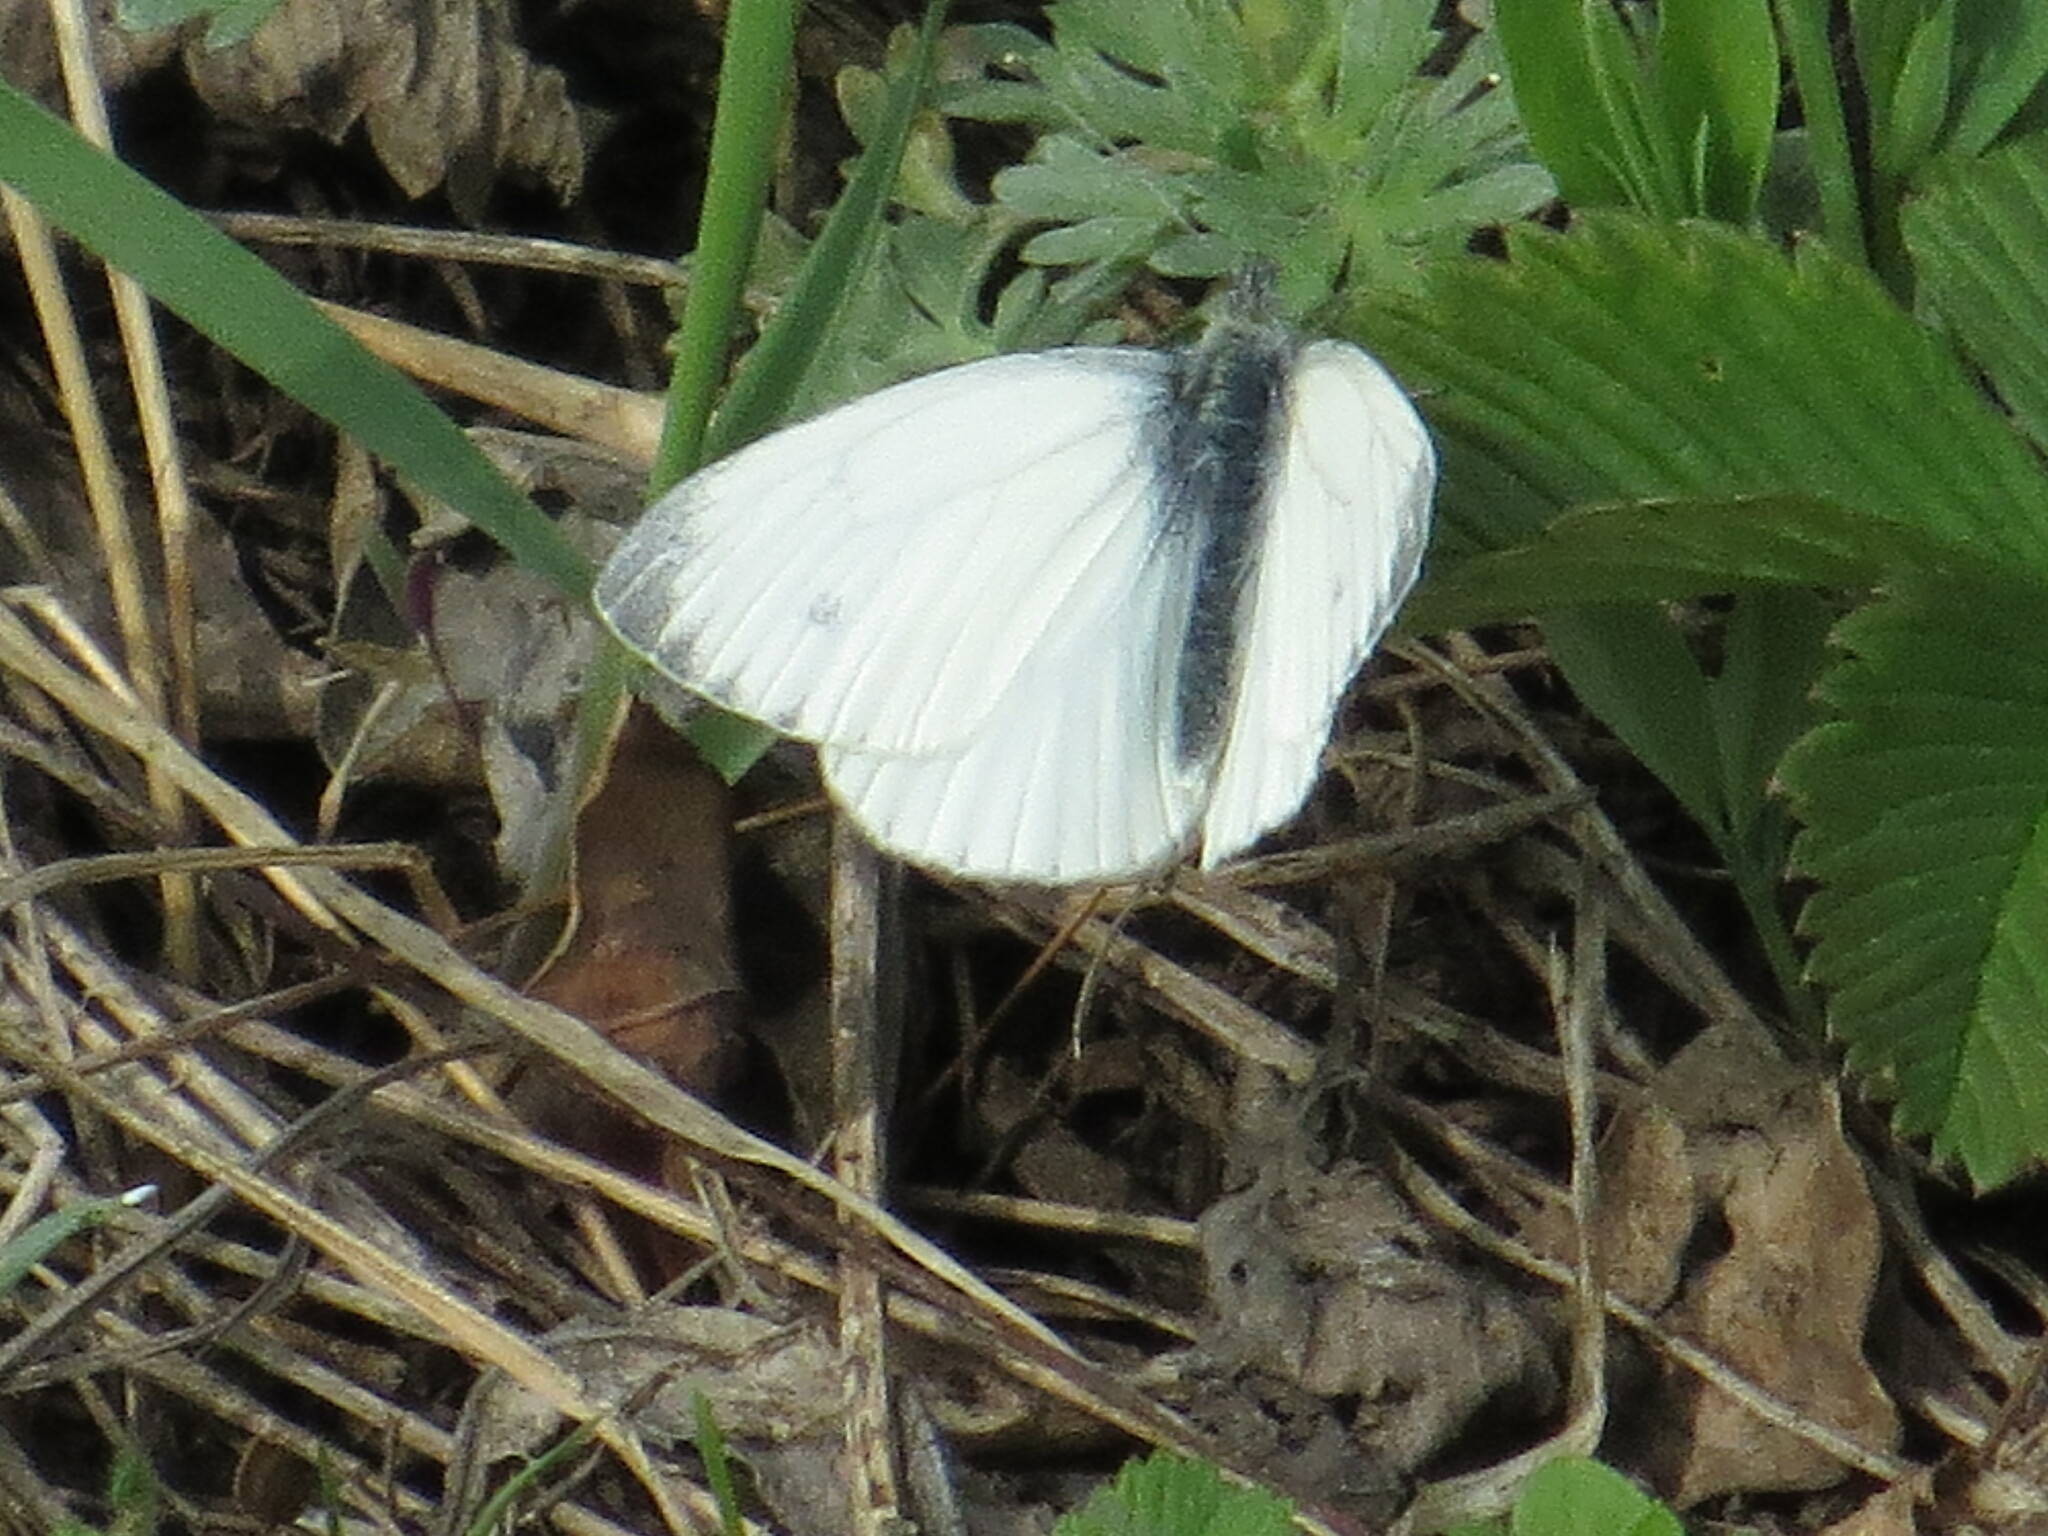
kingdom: Animalia
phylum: Arthropoda
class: Insecta
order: Lepidoptera
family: Pieridae
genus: Pieris
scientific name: Pieris napi
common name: Green-veined white
